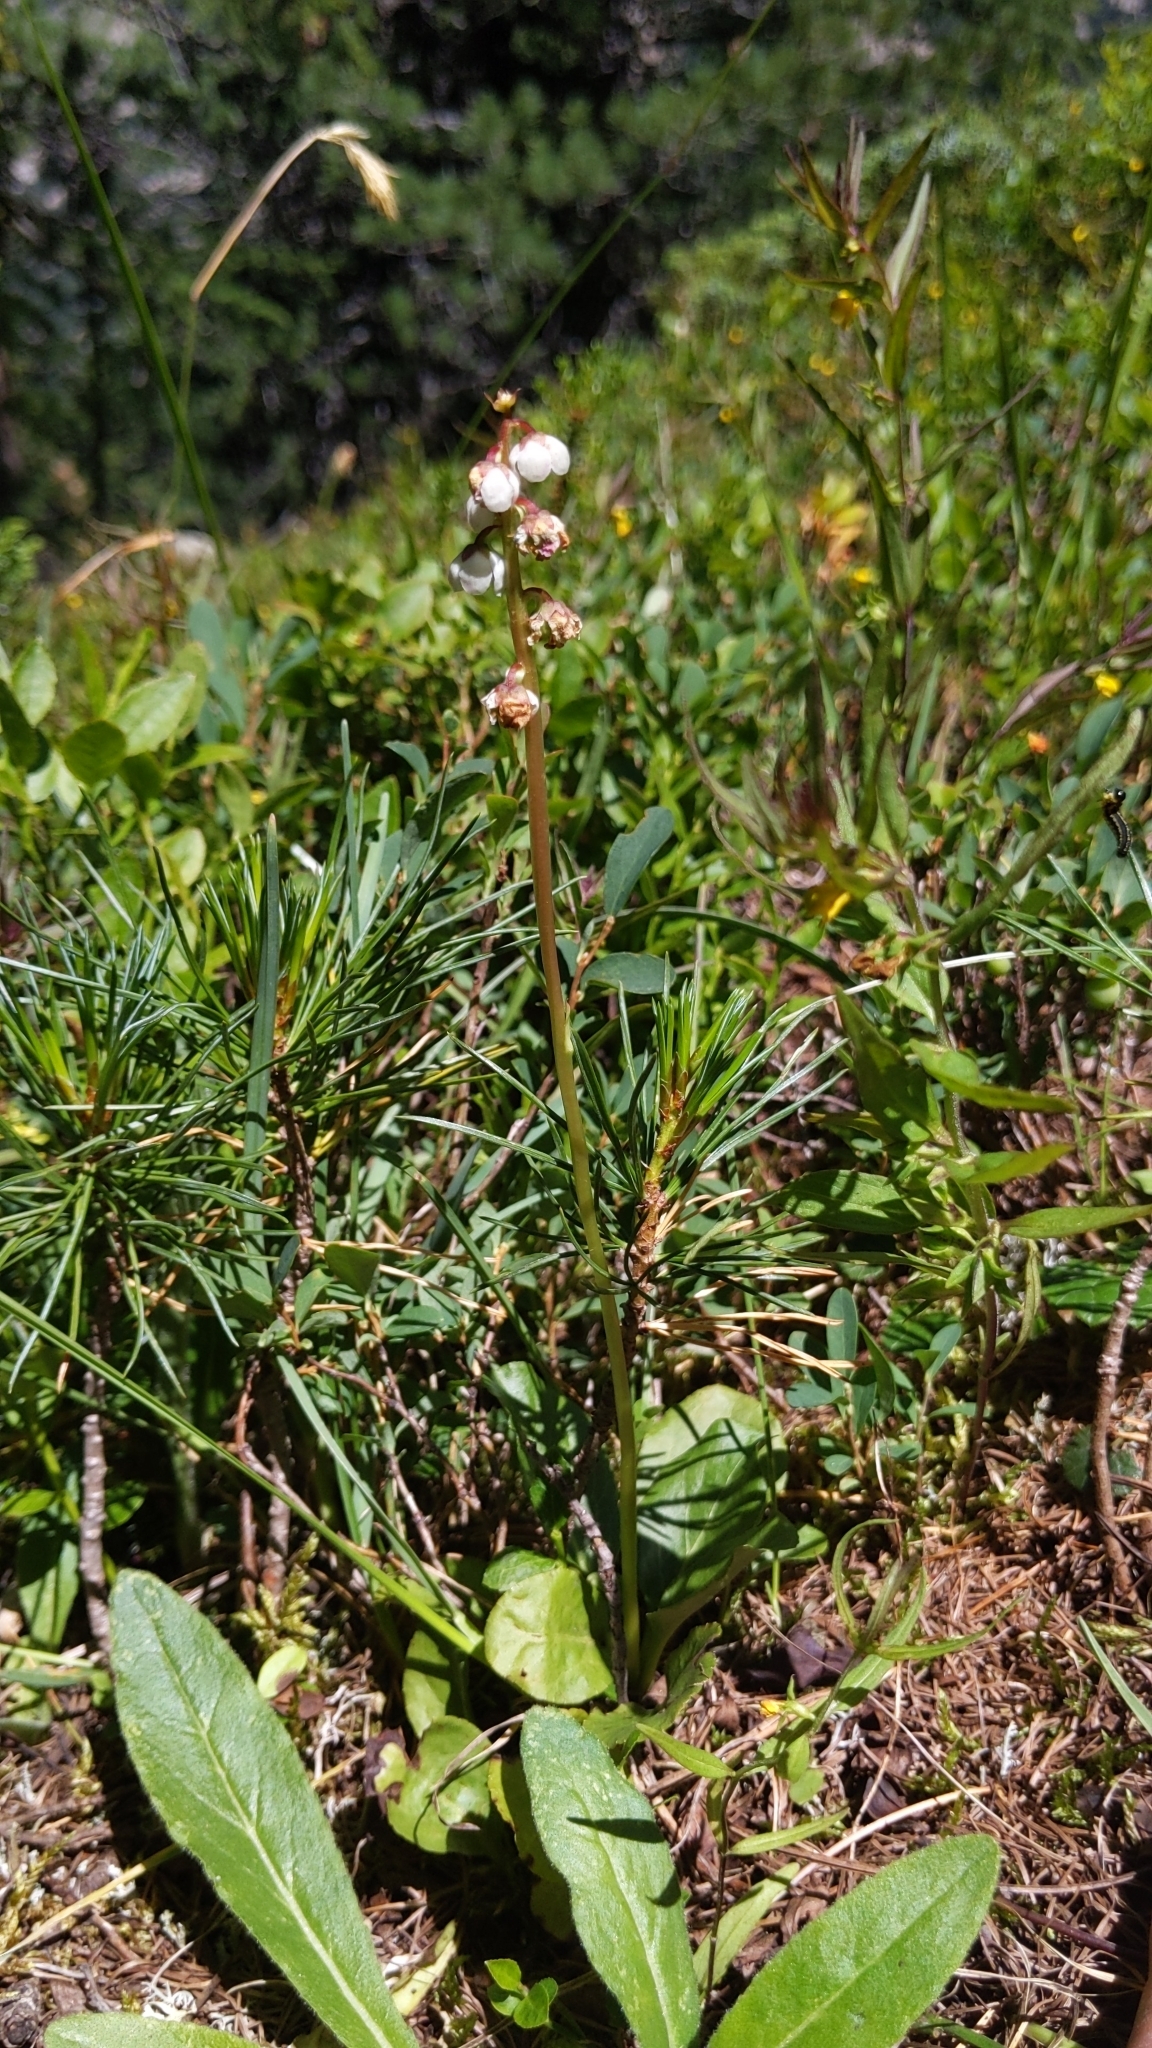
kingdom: Plantae
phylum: Tracheophyta
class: Magnoliopsida
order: Ericales
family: Ericaceae
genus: Pyrola
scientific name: Pyrola minor
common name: Common wintergreen
